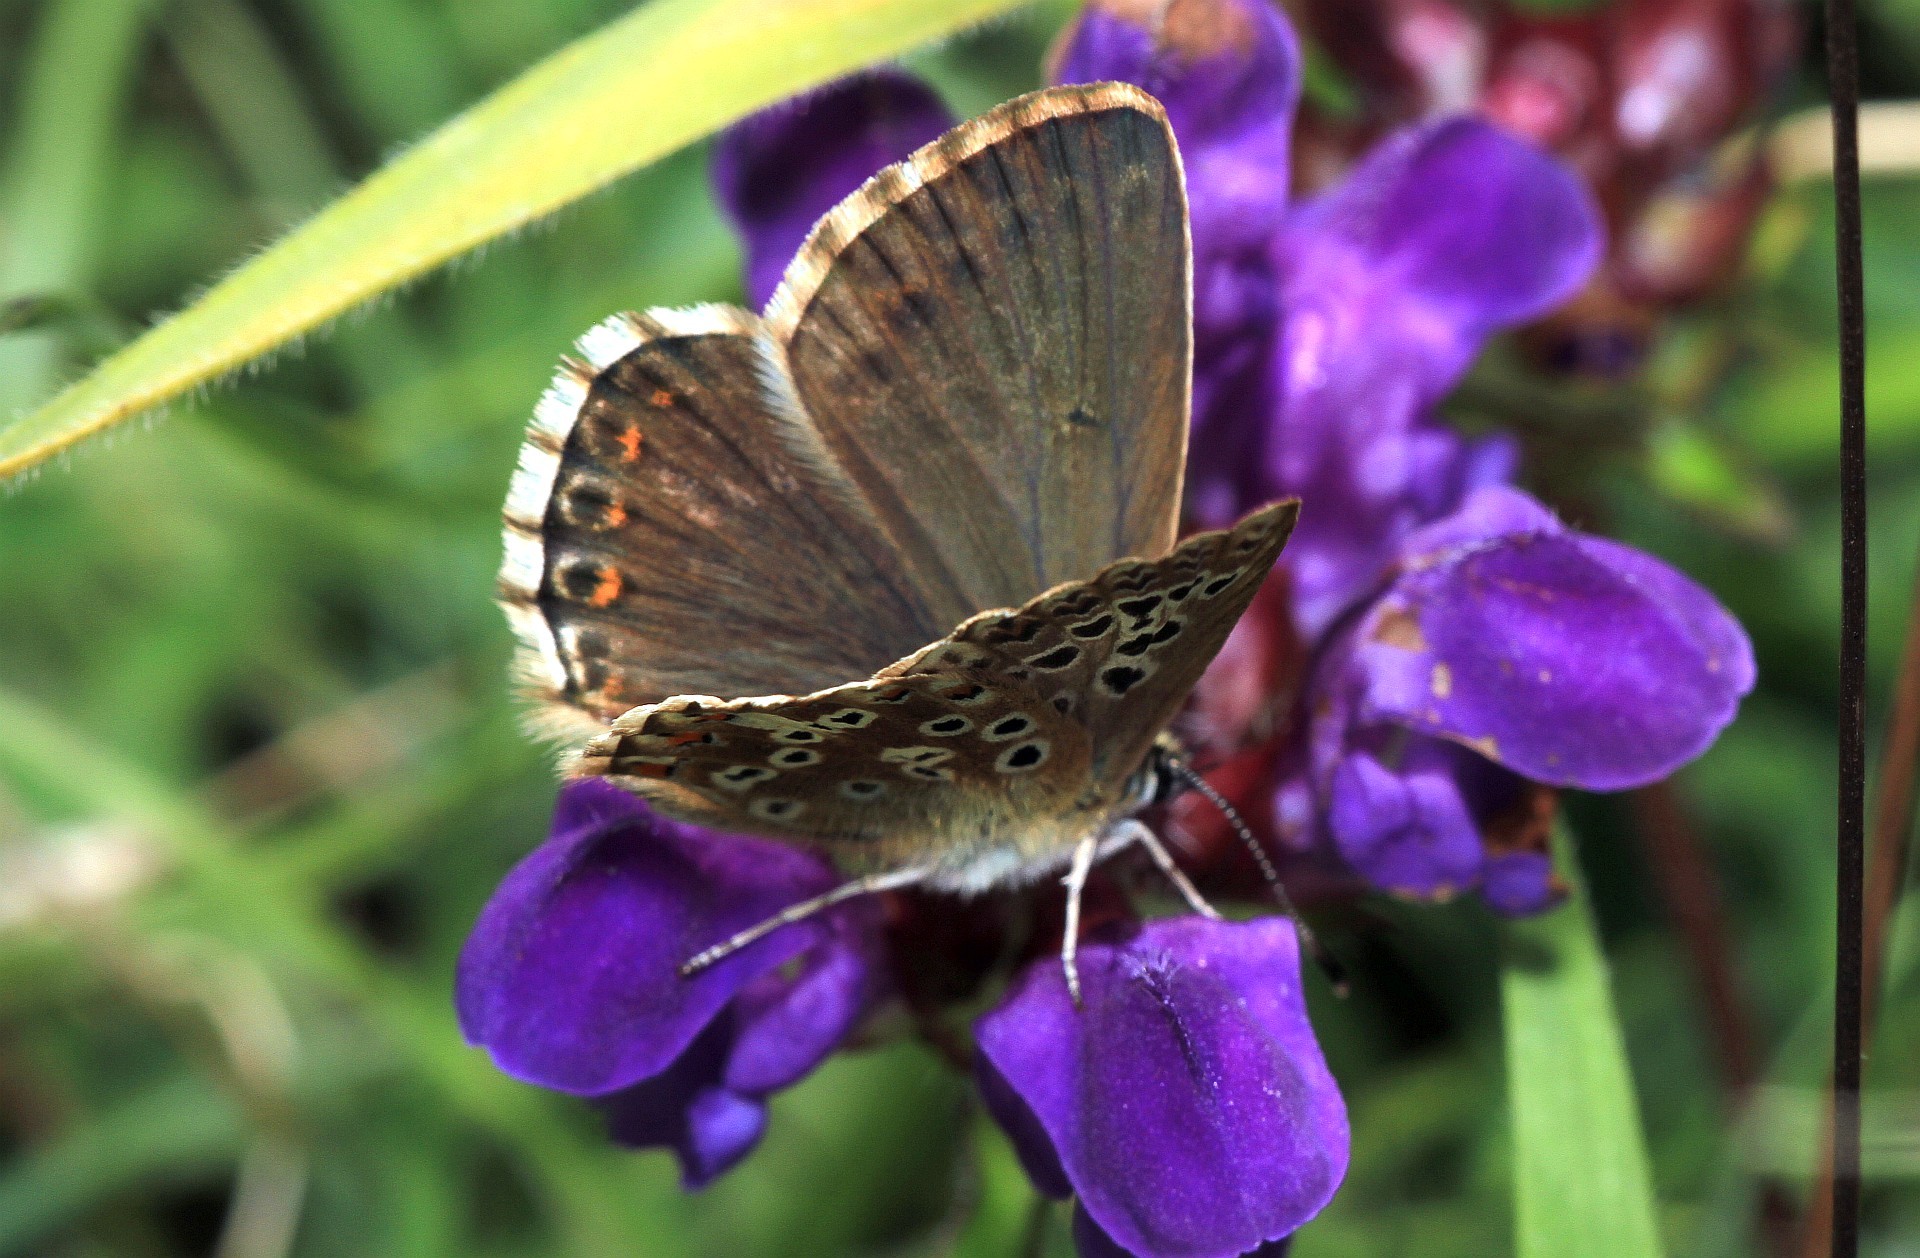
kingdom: Animalia
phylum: Arthropoda
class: Insecta
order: Lepidoptera
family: Lycaenidae
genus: Lysandra
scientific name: Lysandra coridon
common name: Chalkhill blue
